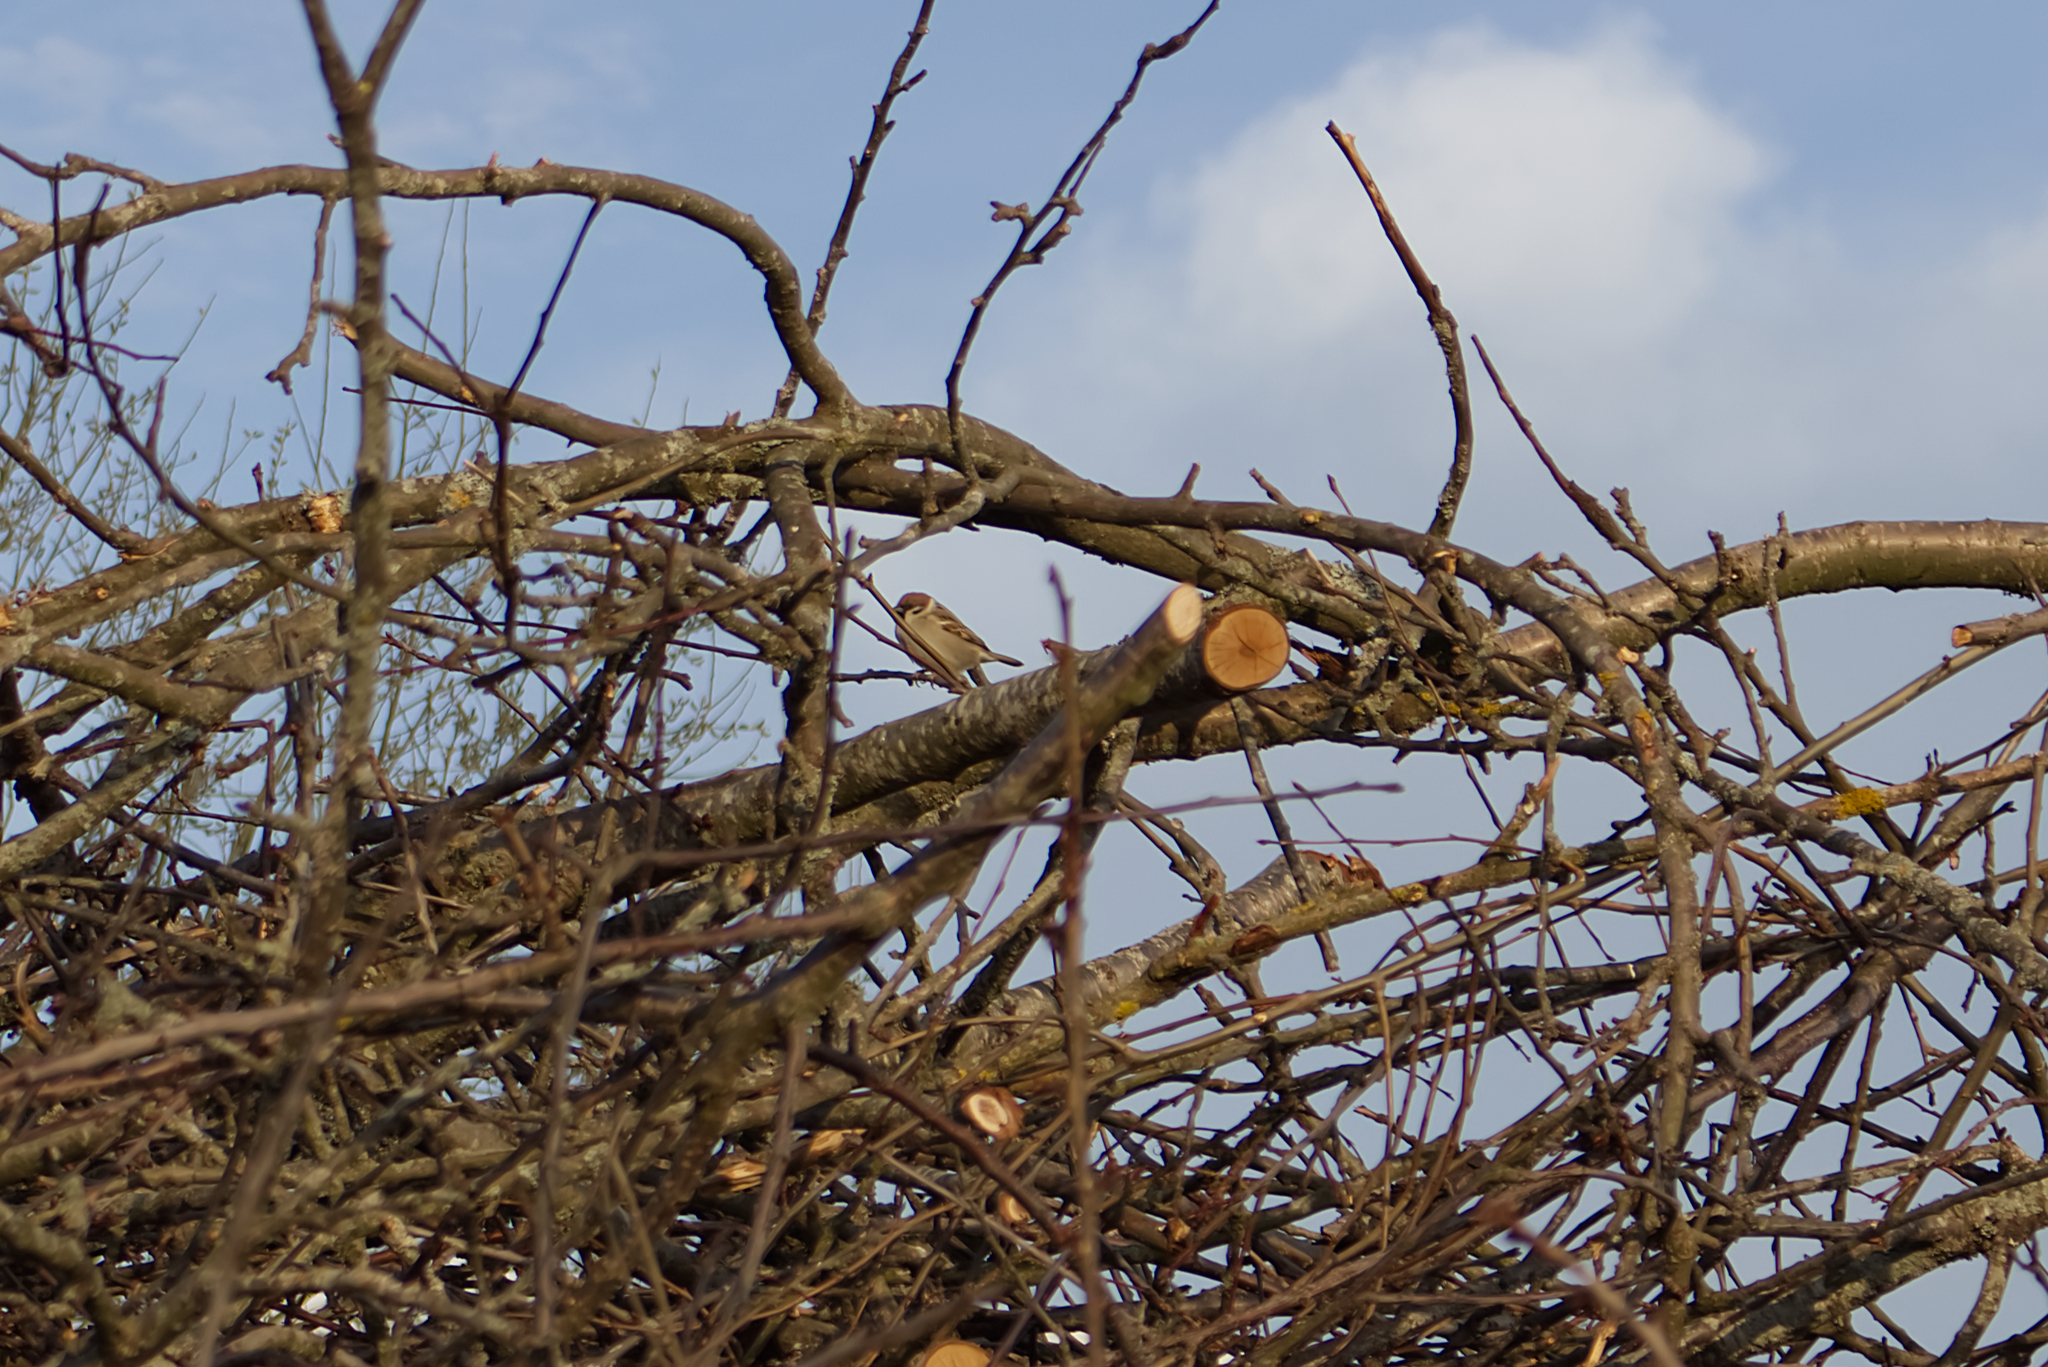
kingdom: Animalia
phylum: Chordata
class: Aves
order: Passeriformes
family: Passeridae
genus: Passer
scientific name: Passer montanus
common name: Eurasian tree sparrow
